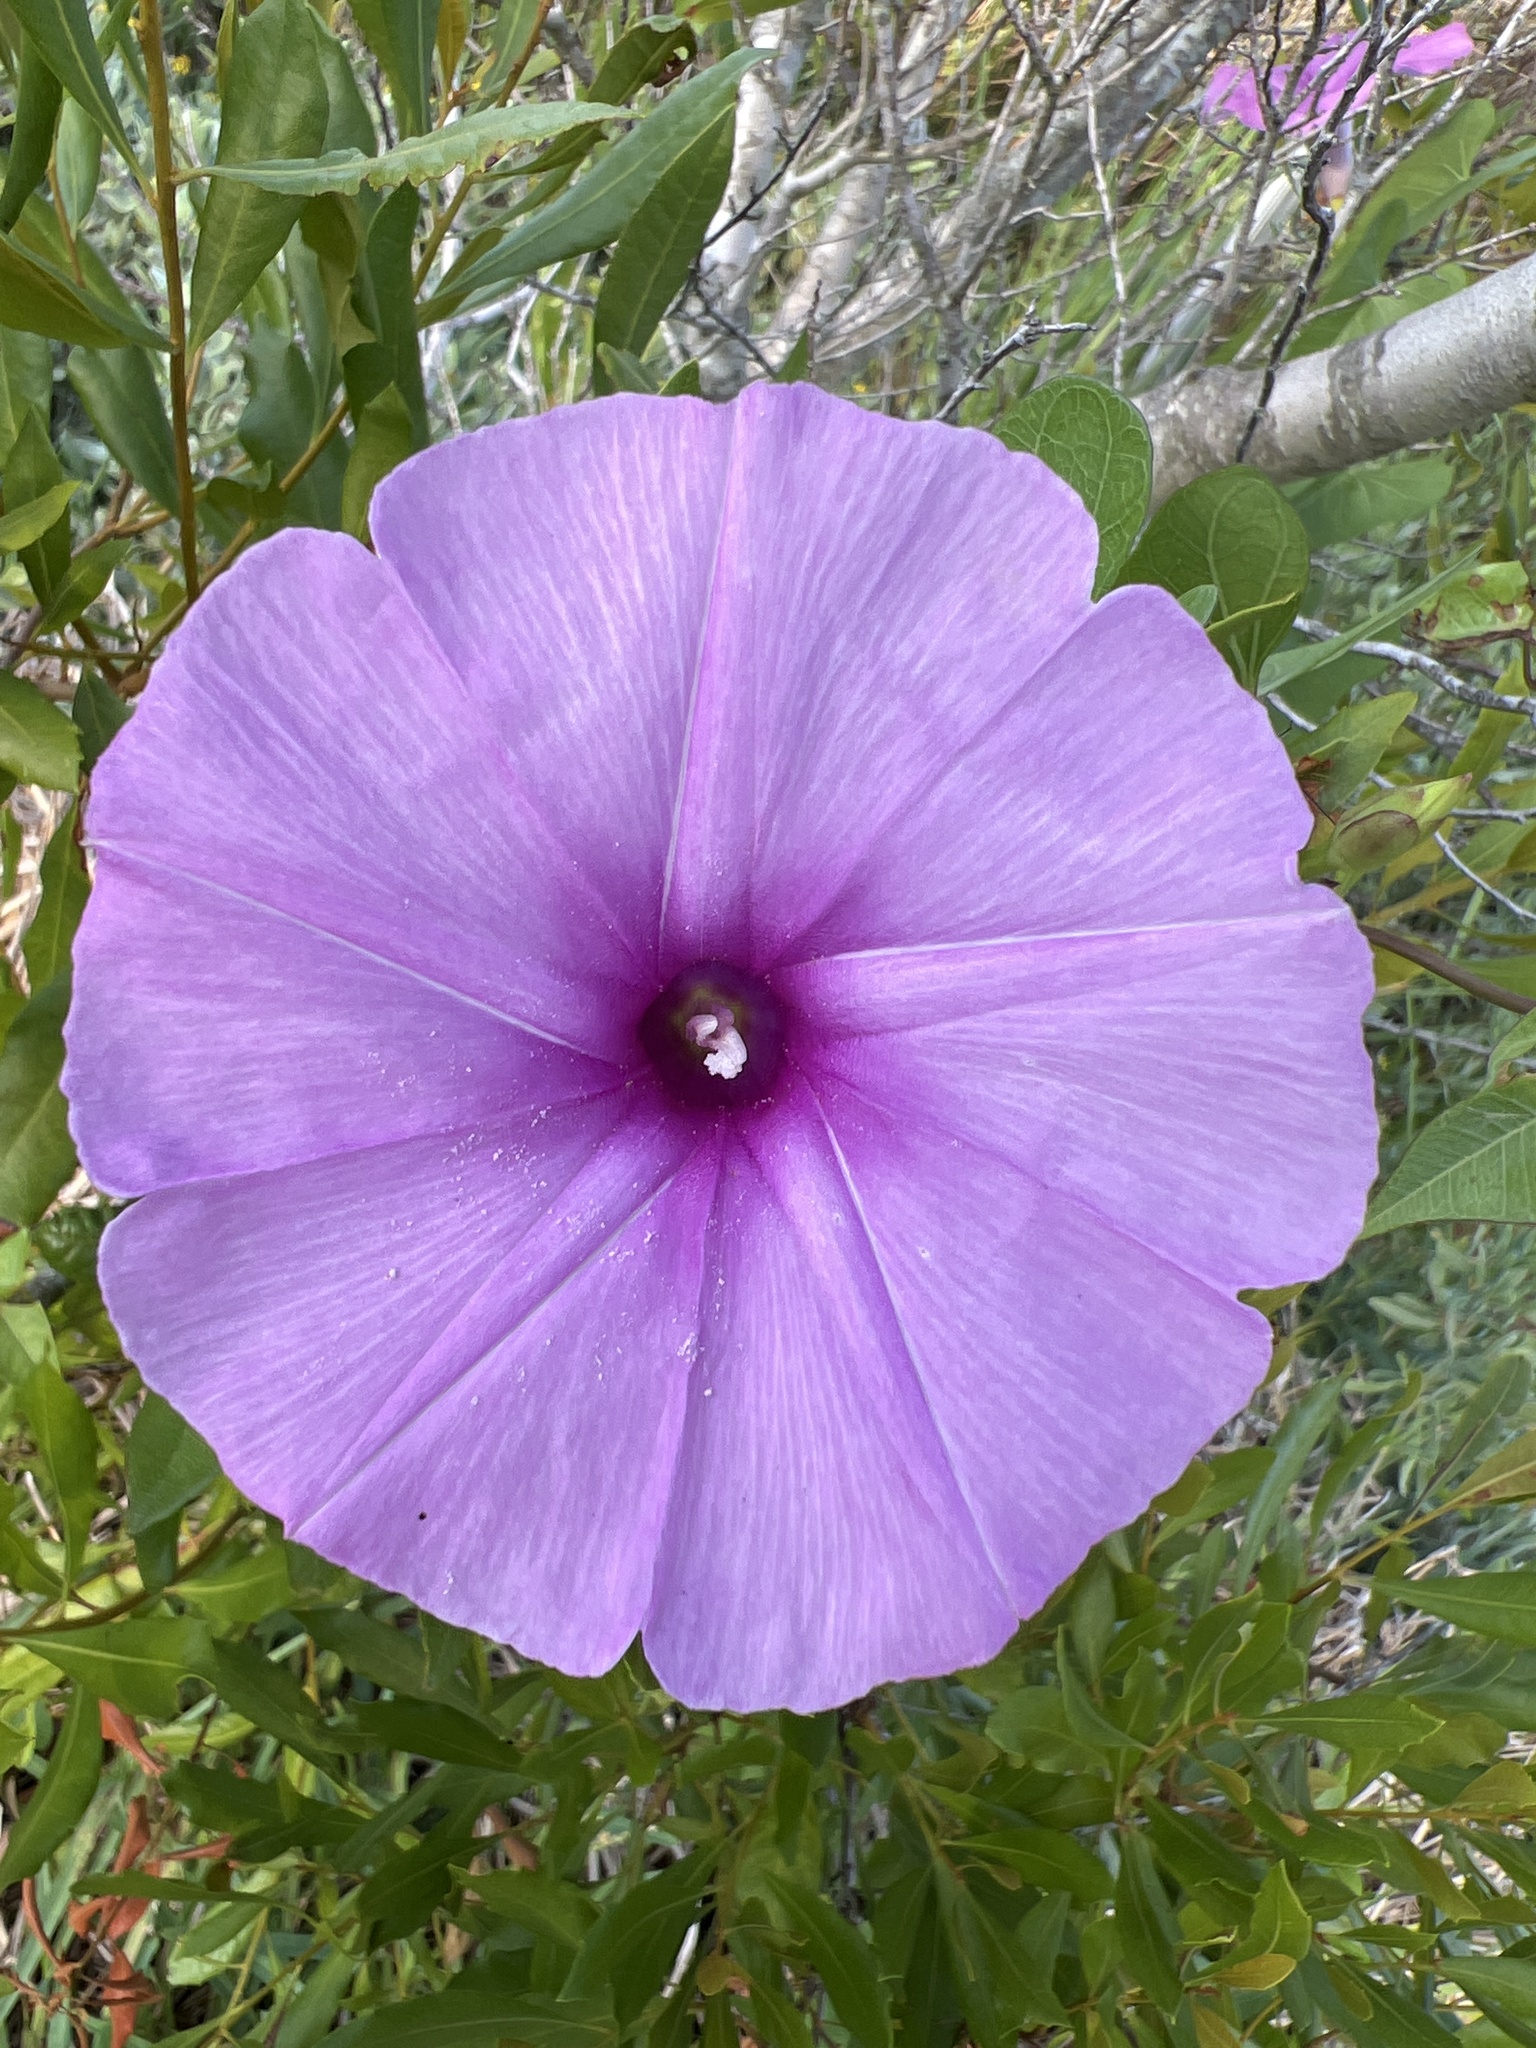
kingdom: Plantae
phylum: Tracheophyta
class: Magnoliopsida
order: Solanales
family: Convolvulaceae
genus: Ipomoea
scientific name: Ipomoea sagittata
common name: Saltmarsh morning glory
